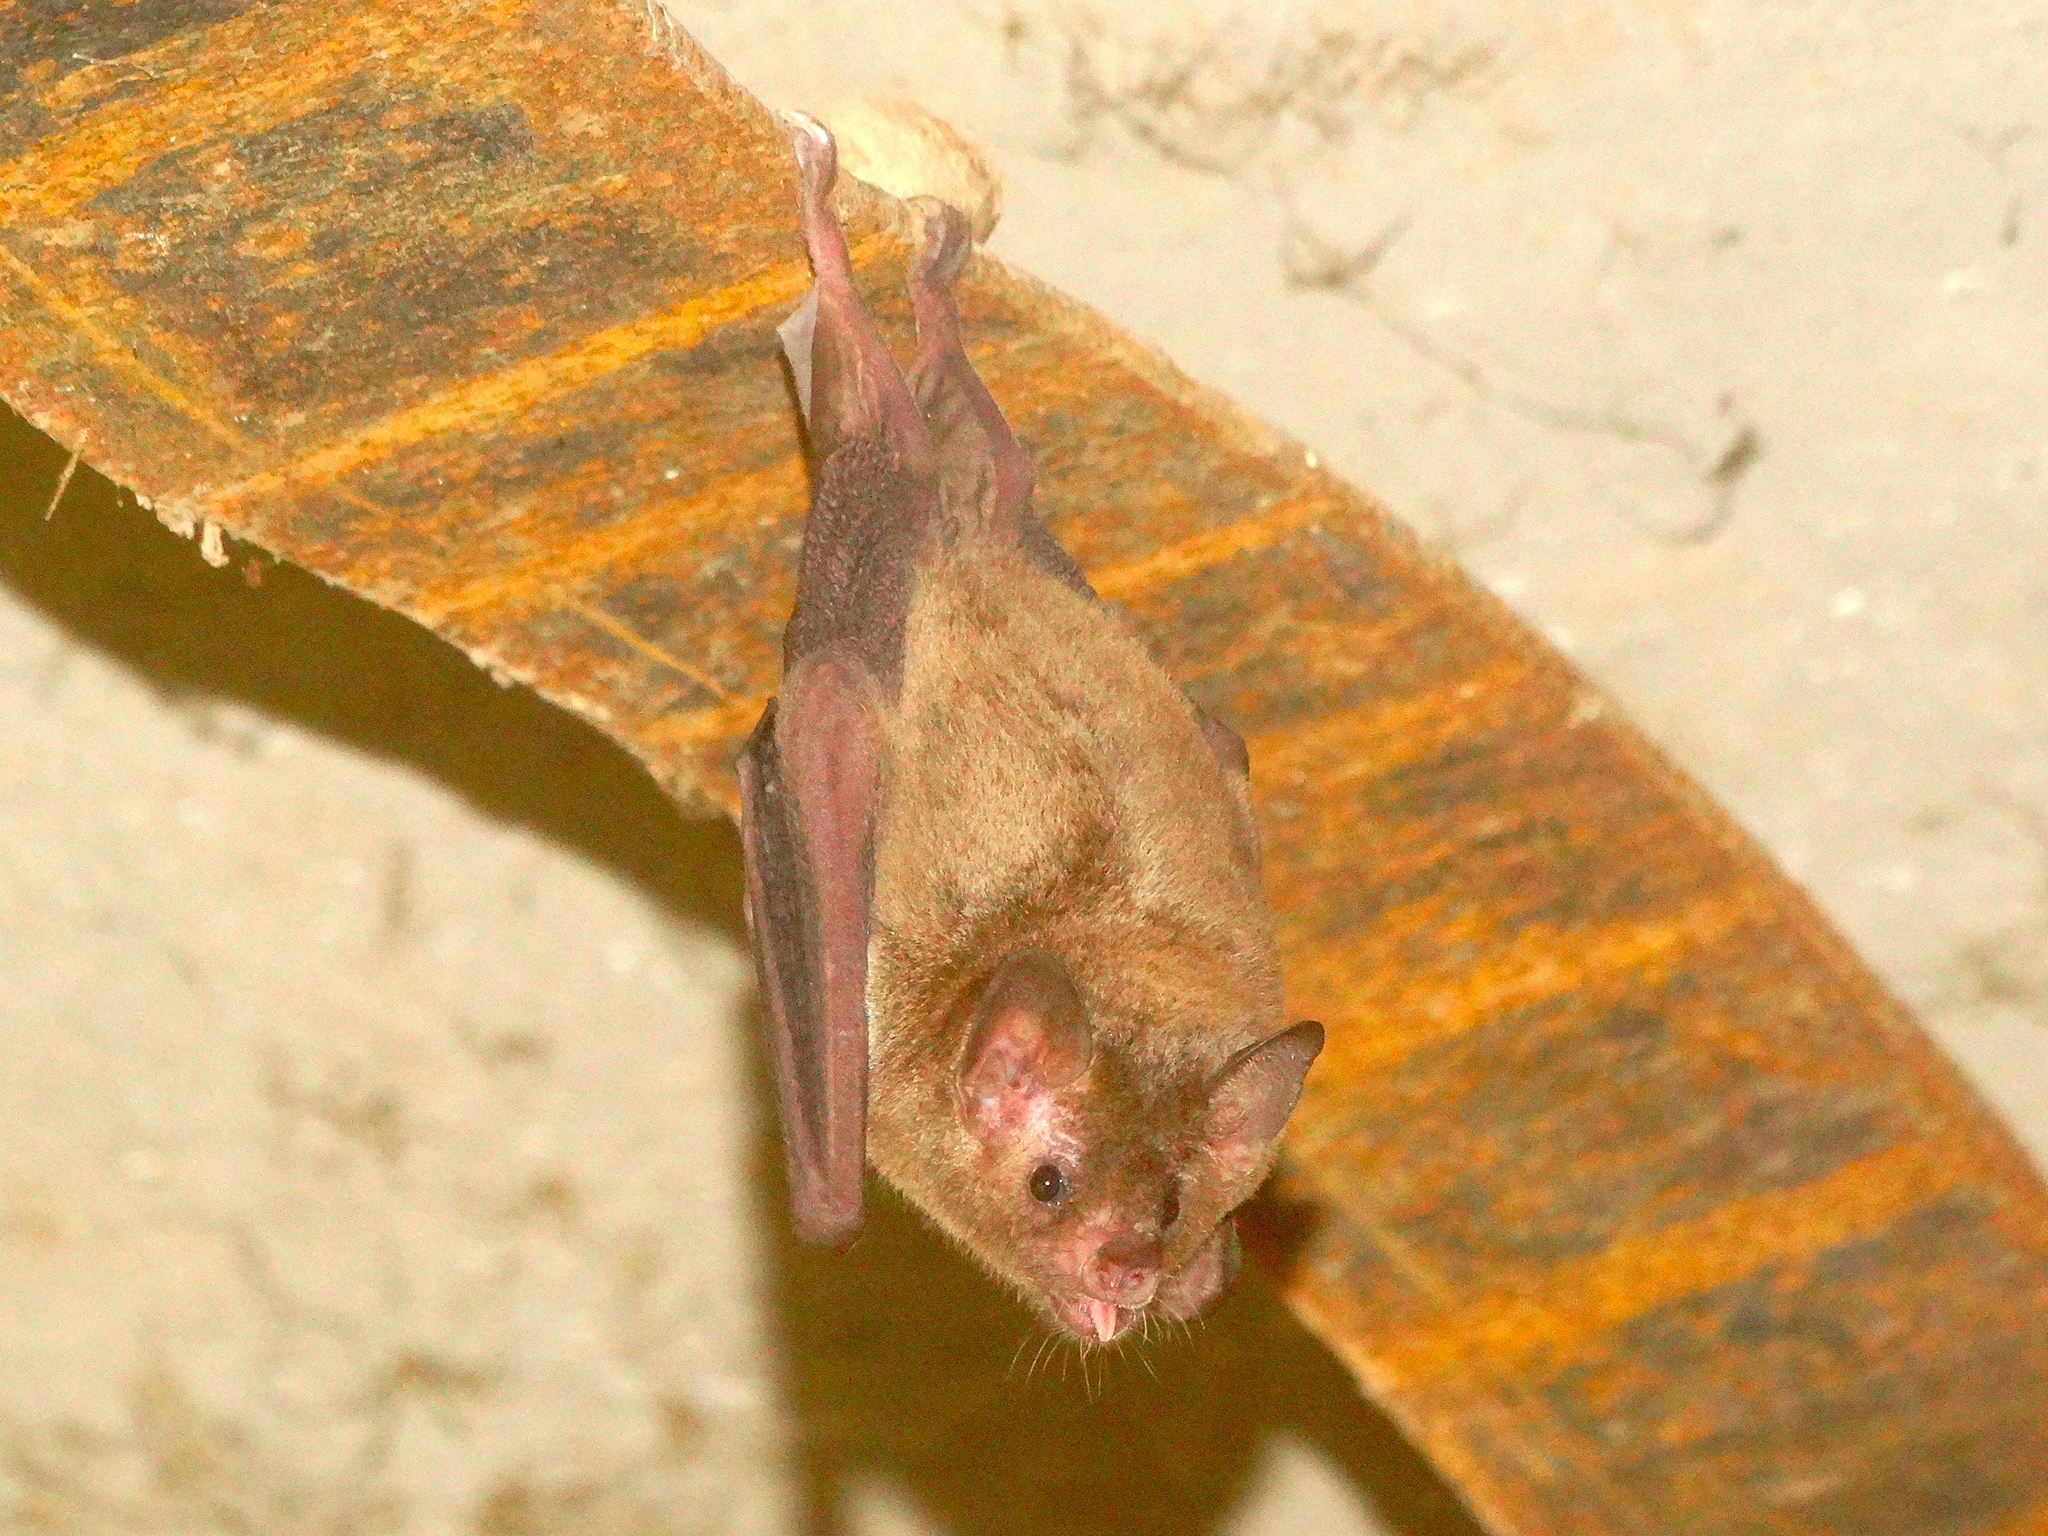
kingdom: Animalia
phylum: Chordata
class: Mammalia
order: Chiroptera
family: Phyllostomidae
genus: Glossophaga
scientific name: Glossophaga soricina
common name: Pallas's long-tongued bat
